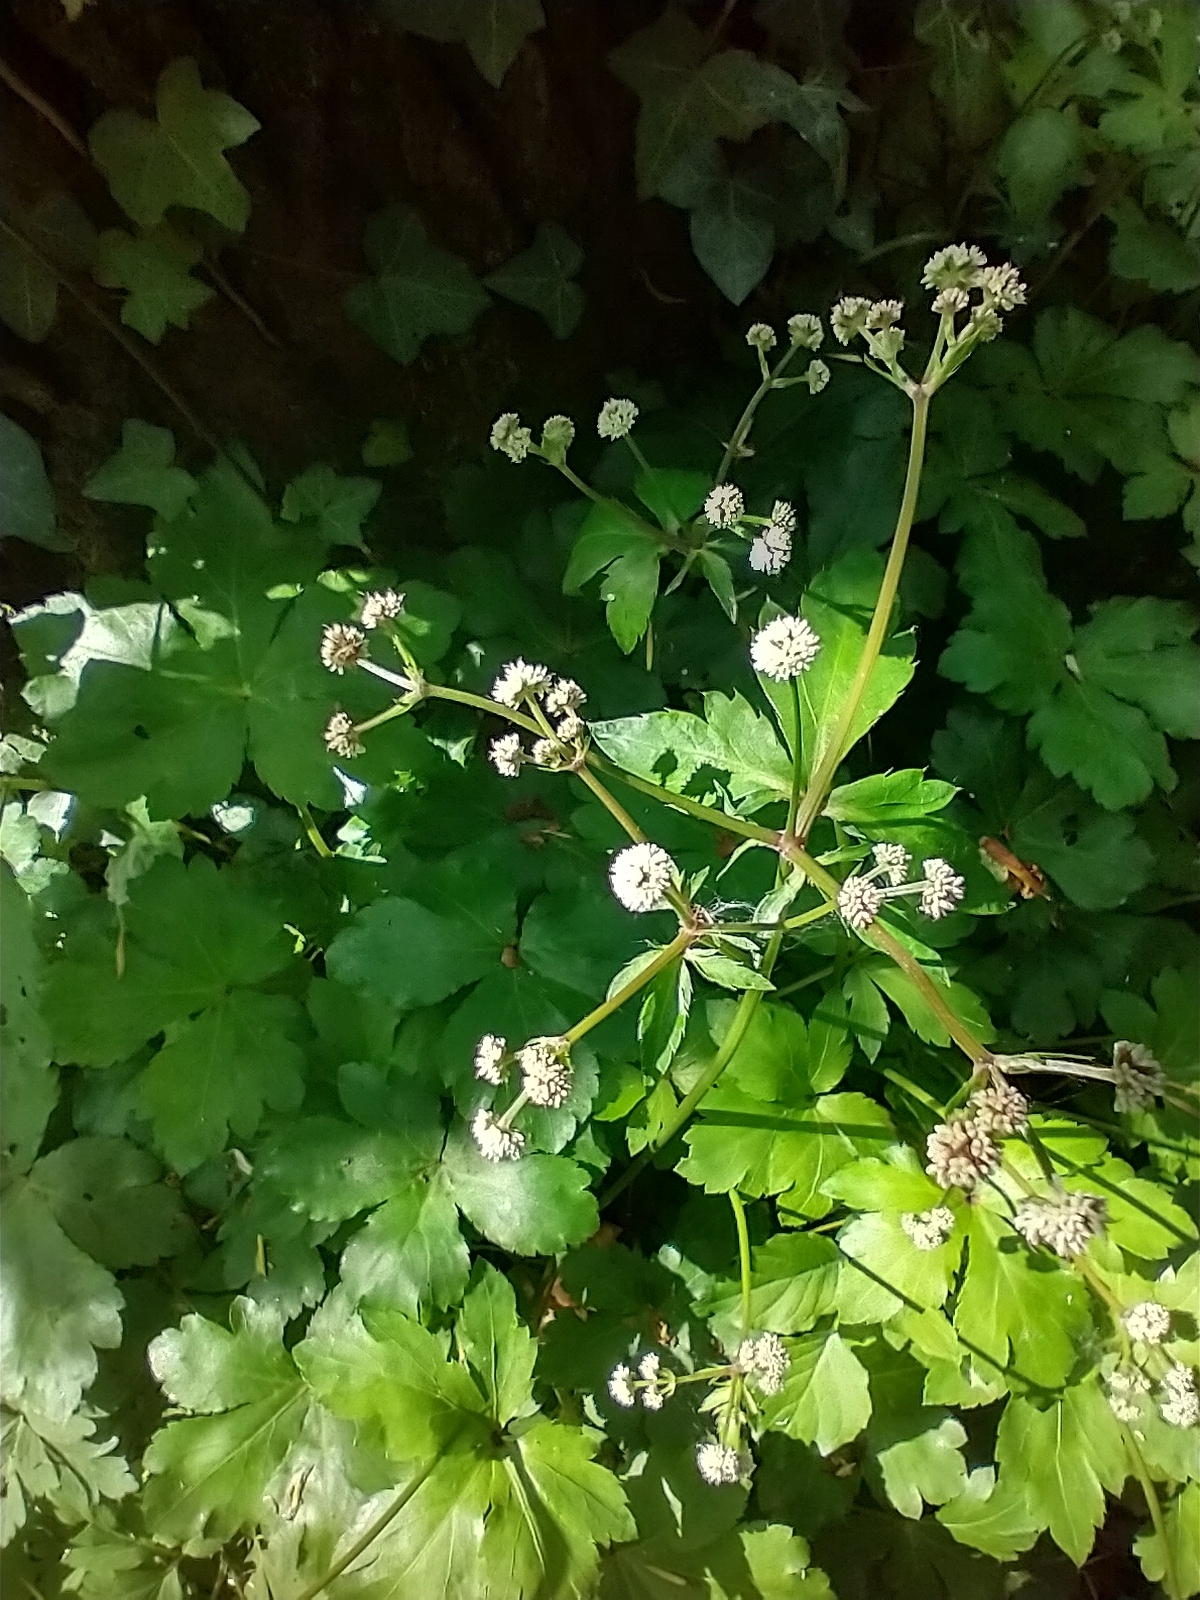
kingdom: Plantae
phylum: Tracheophyta
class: Magnoliopsida
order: Apiales
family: Apiaceae
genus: Sanicula
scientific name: Sanicula europaea
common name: Sanicle
